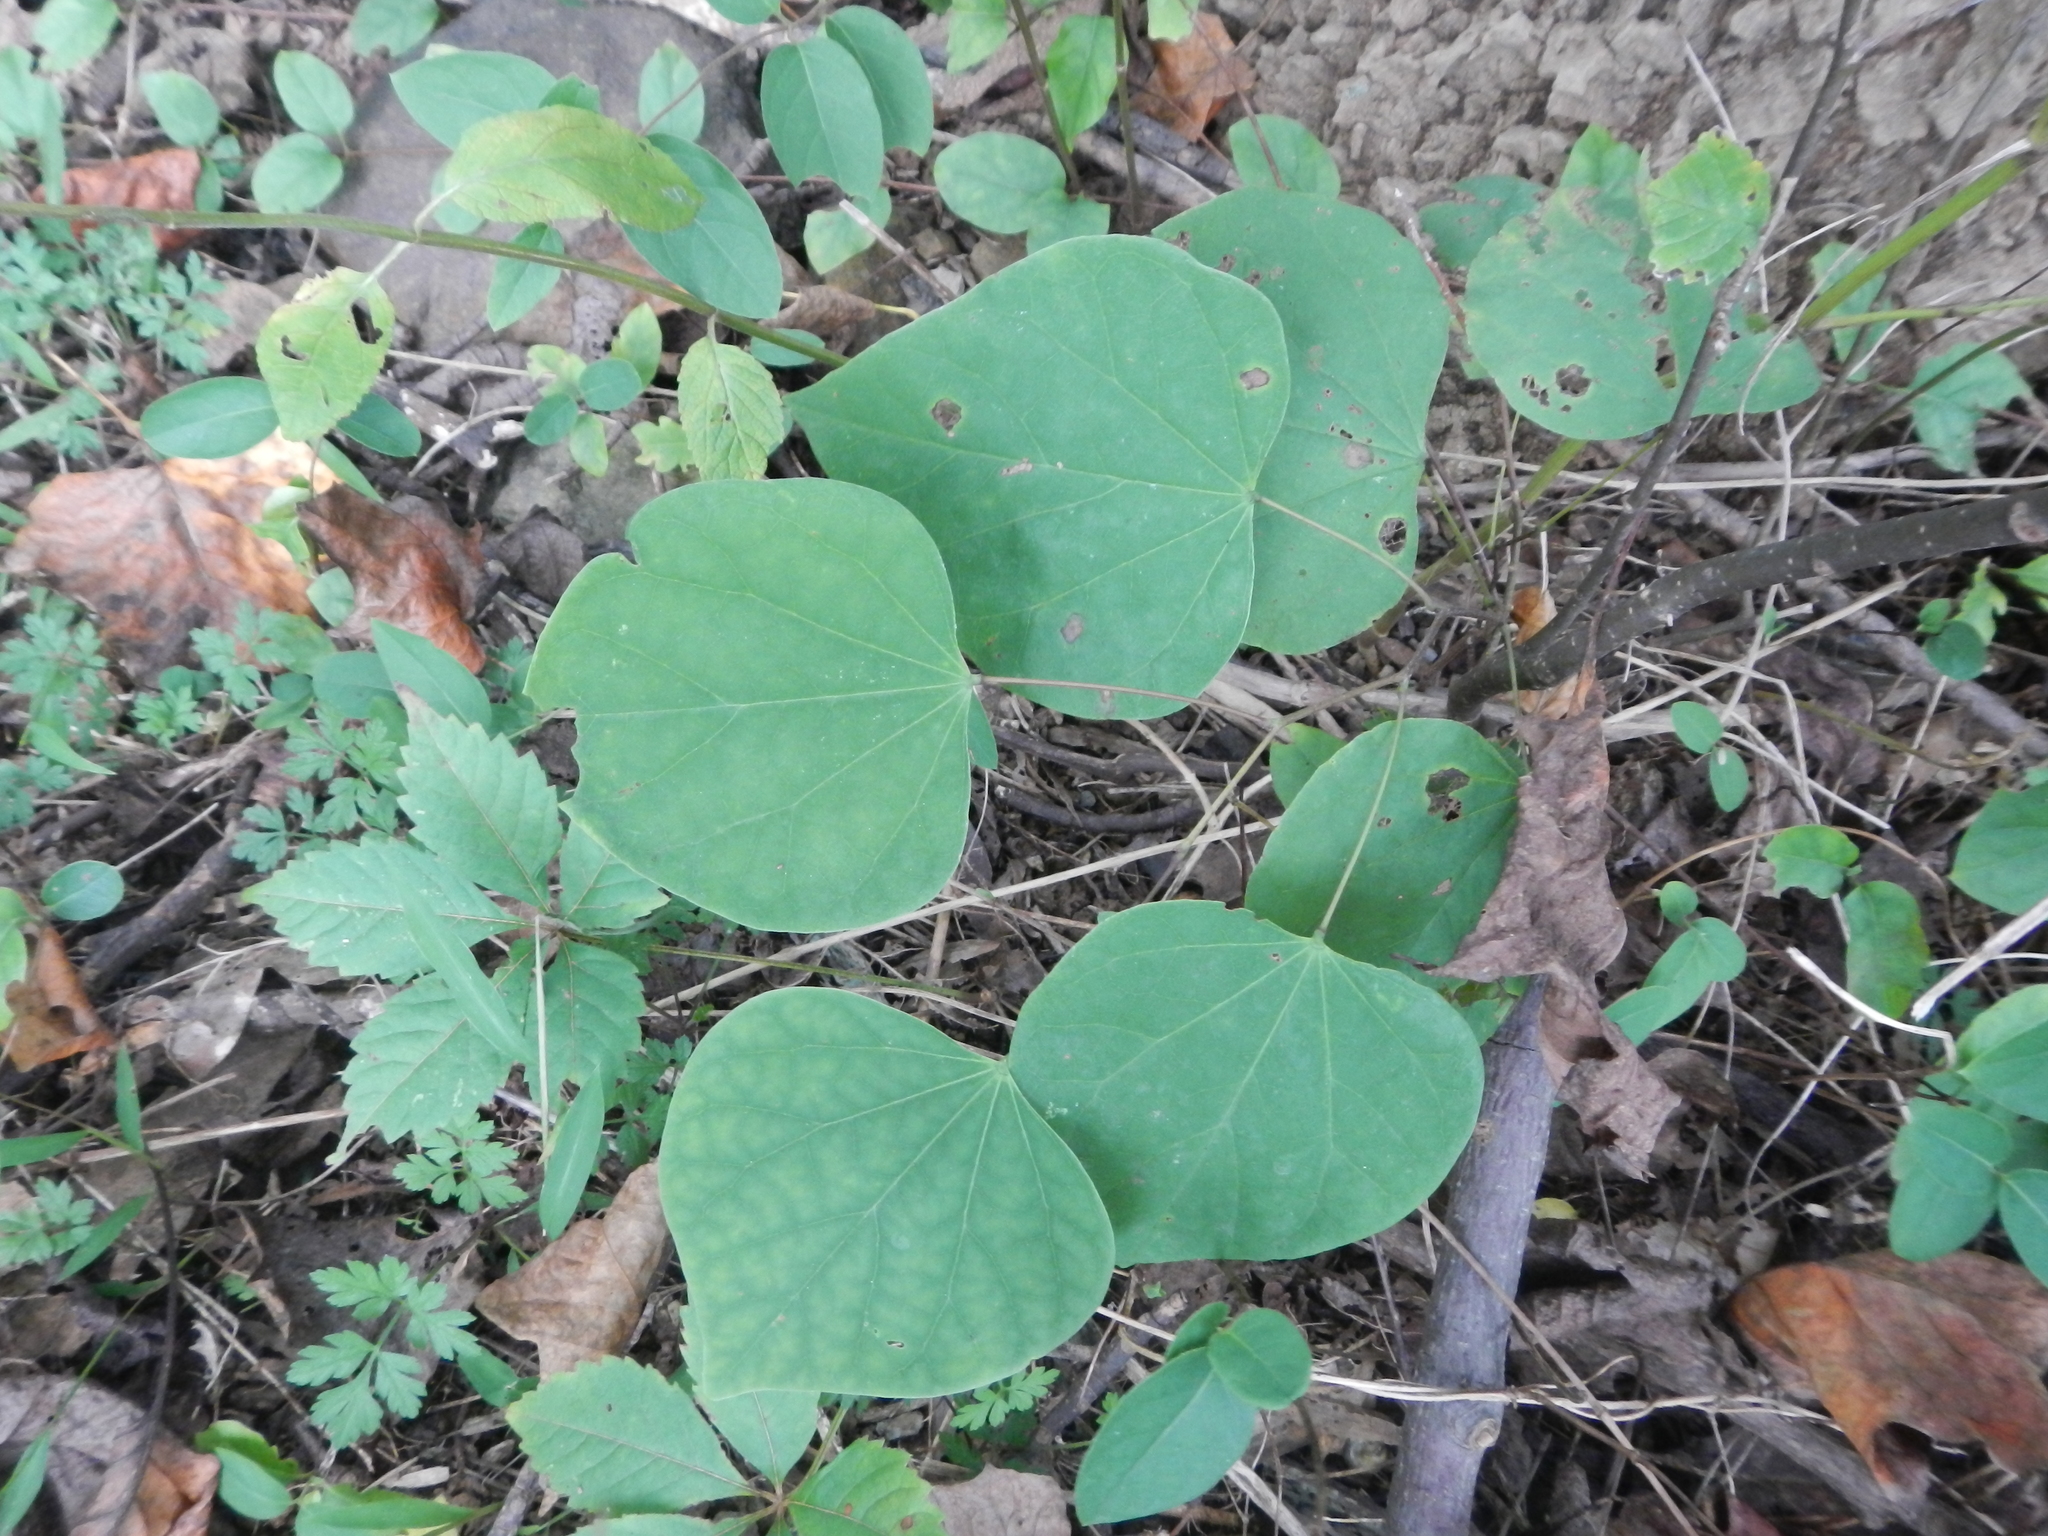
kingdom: Plantae
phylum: Tracheophyta
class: Magnoliopsida
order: Fabales
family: Fabaceae
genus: Cercis
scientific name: Cercis canadensis
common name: Eastern redbud
